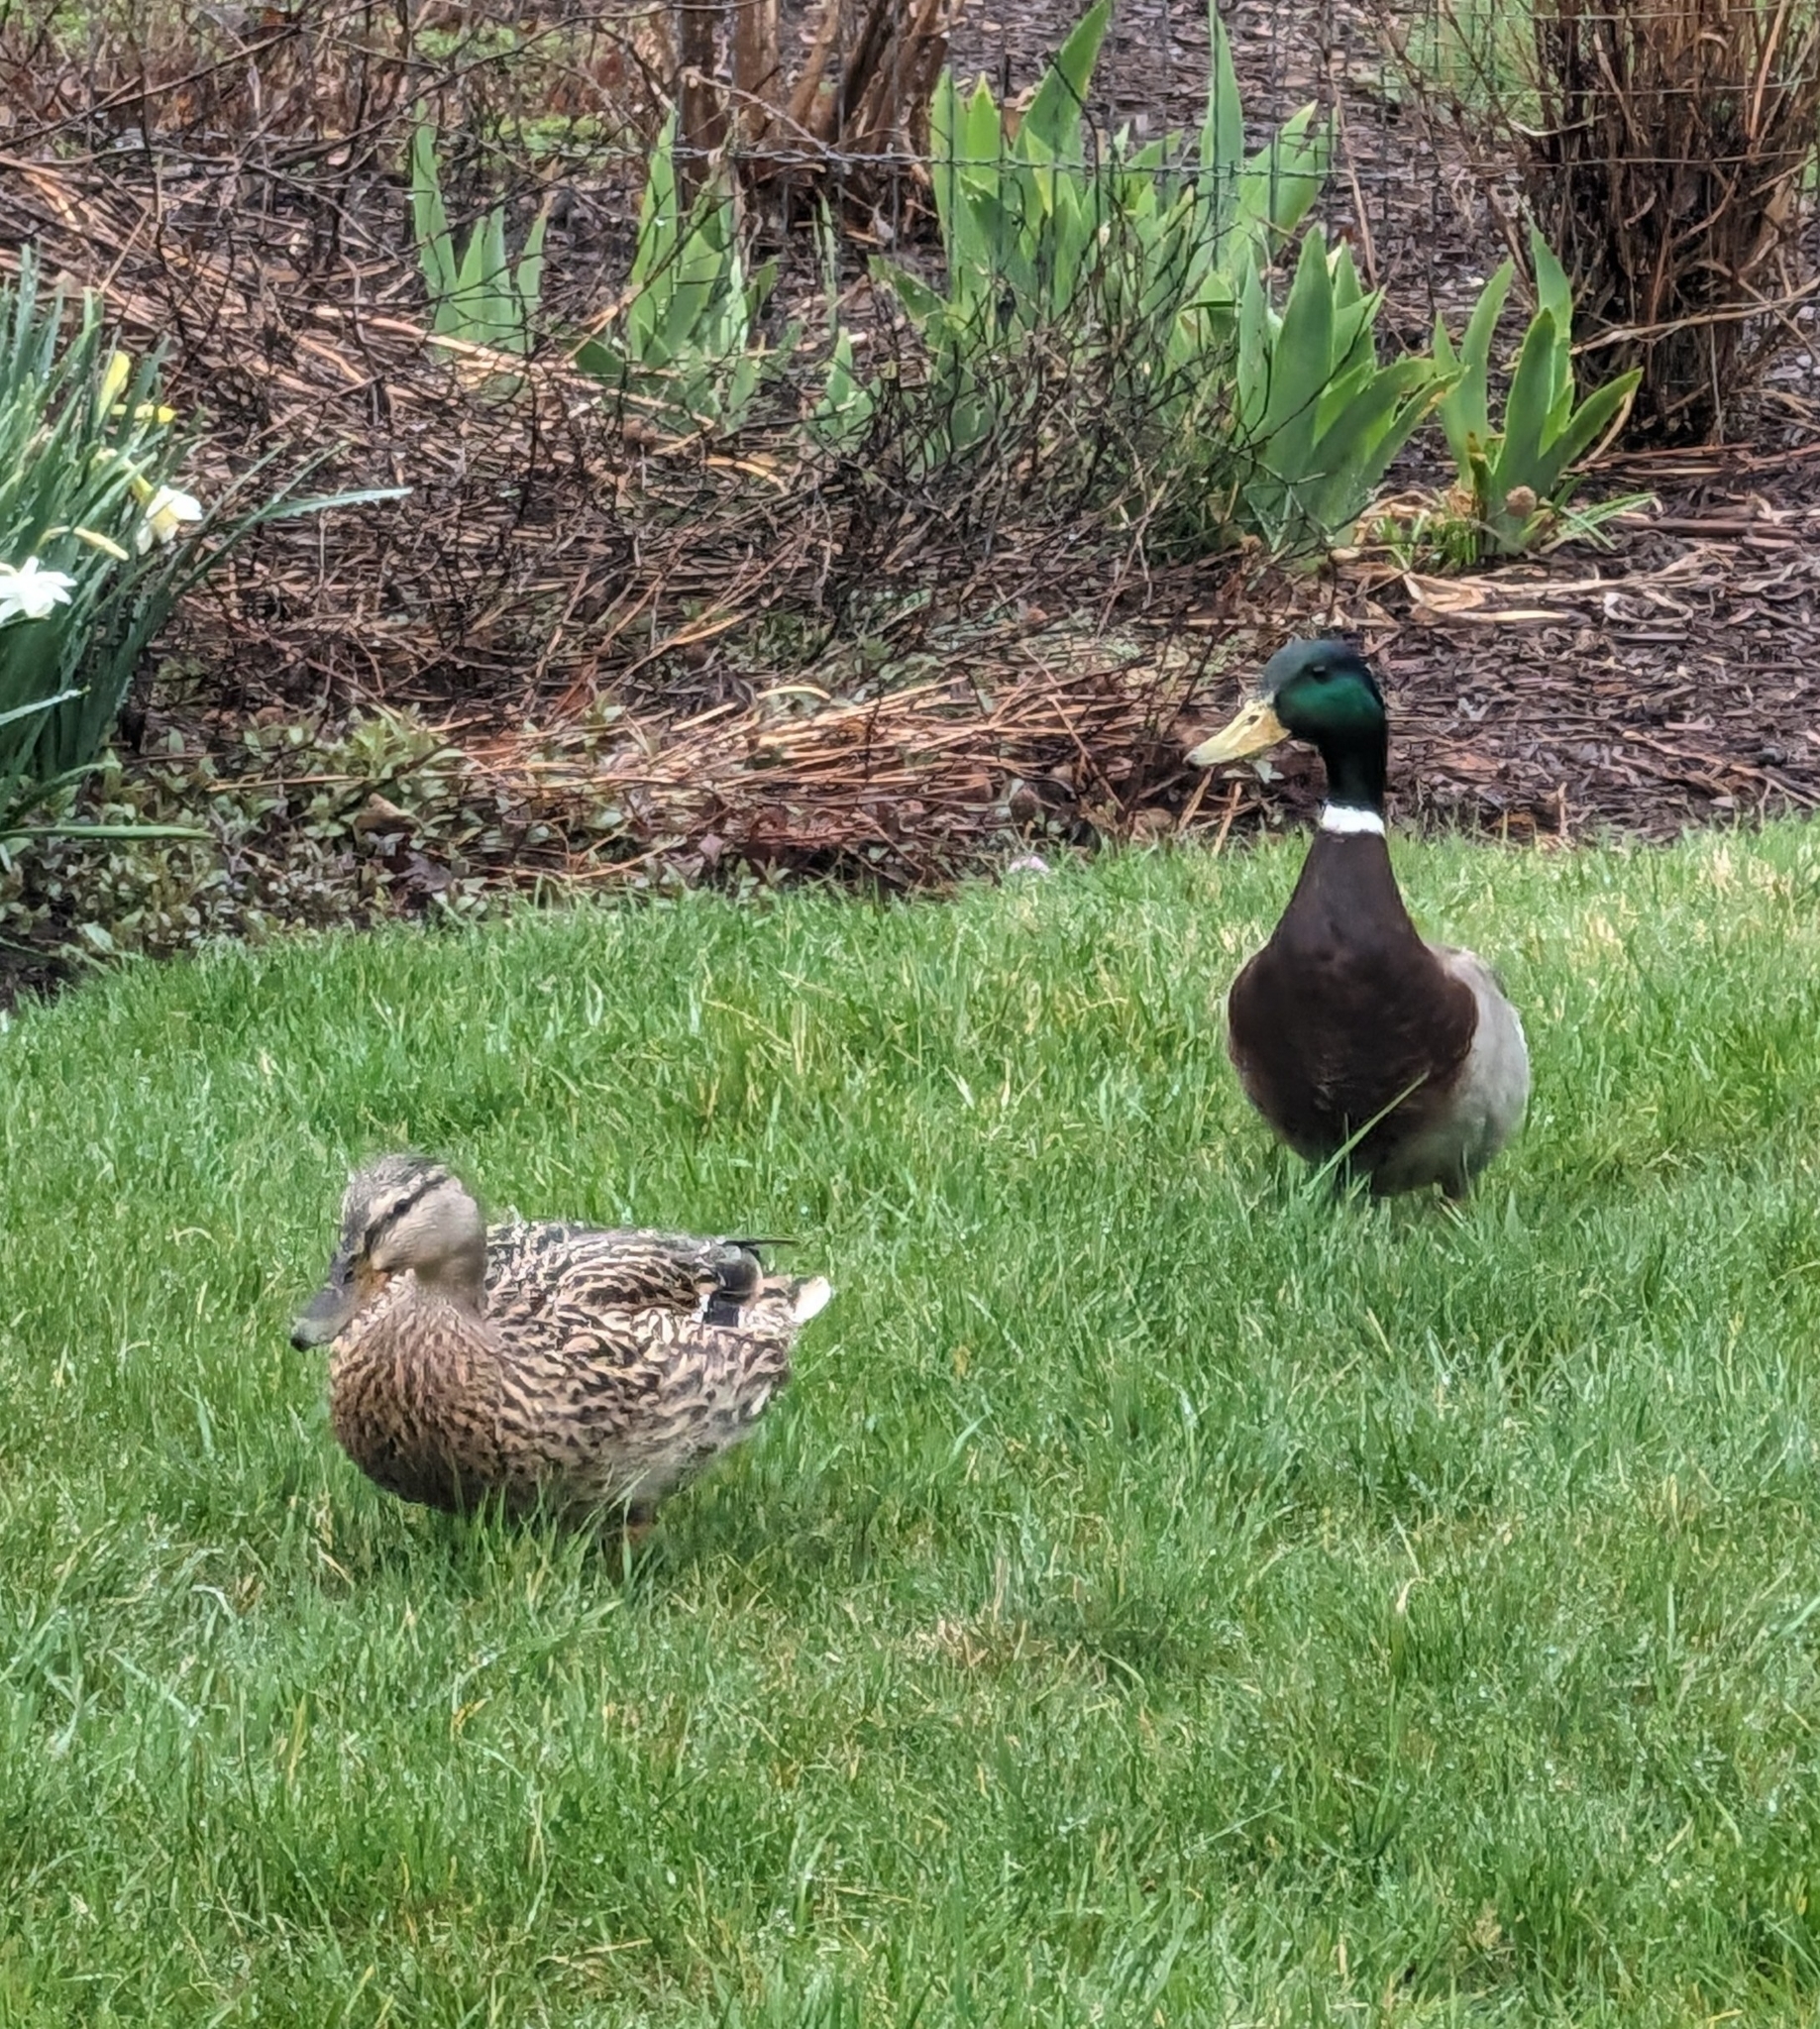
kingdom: Animalia
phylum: Chordata
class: Aves
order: Anseriformes
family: Anatidae
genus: Anas
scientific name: Anas platyrhynchos
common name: Mallard
